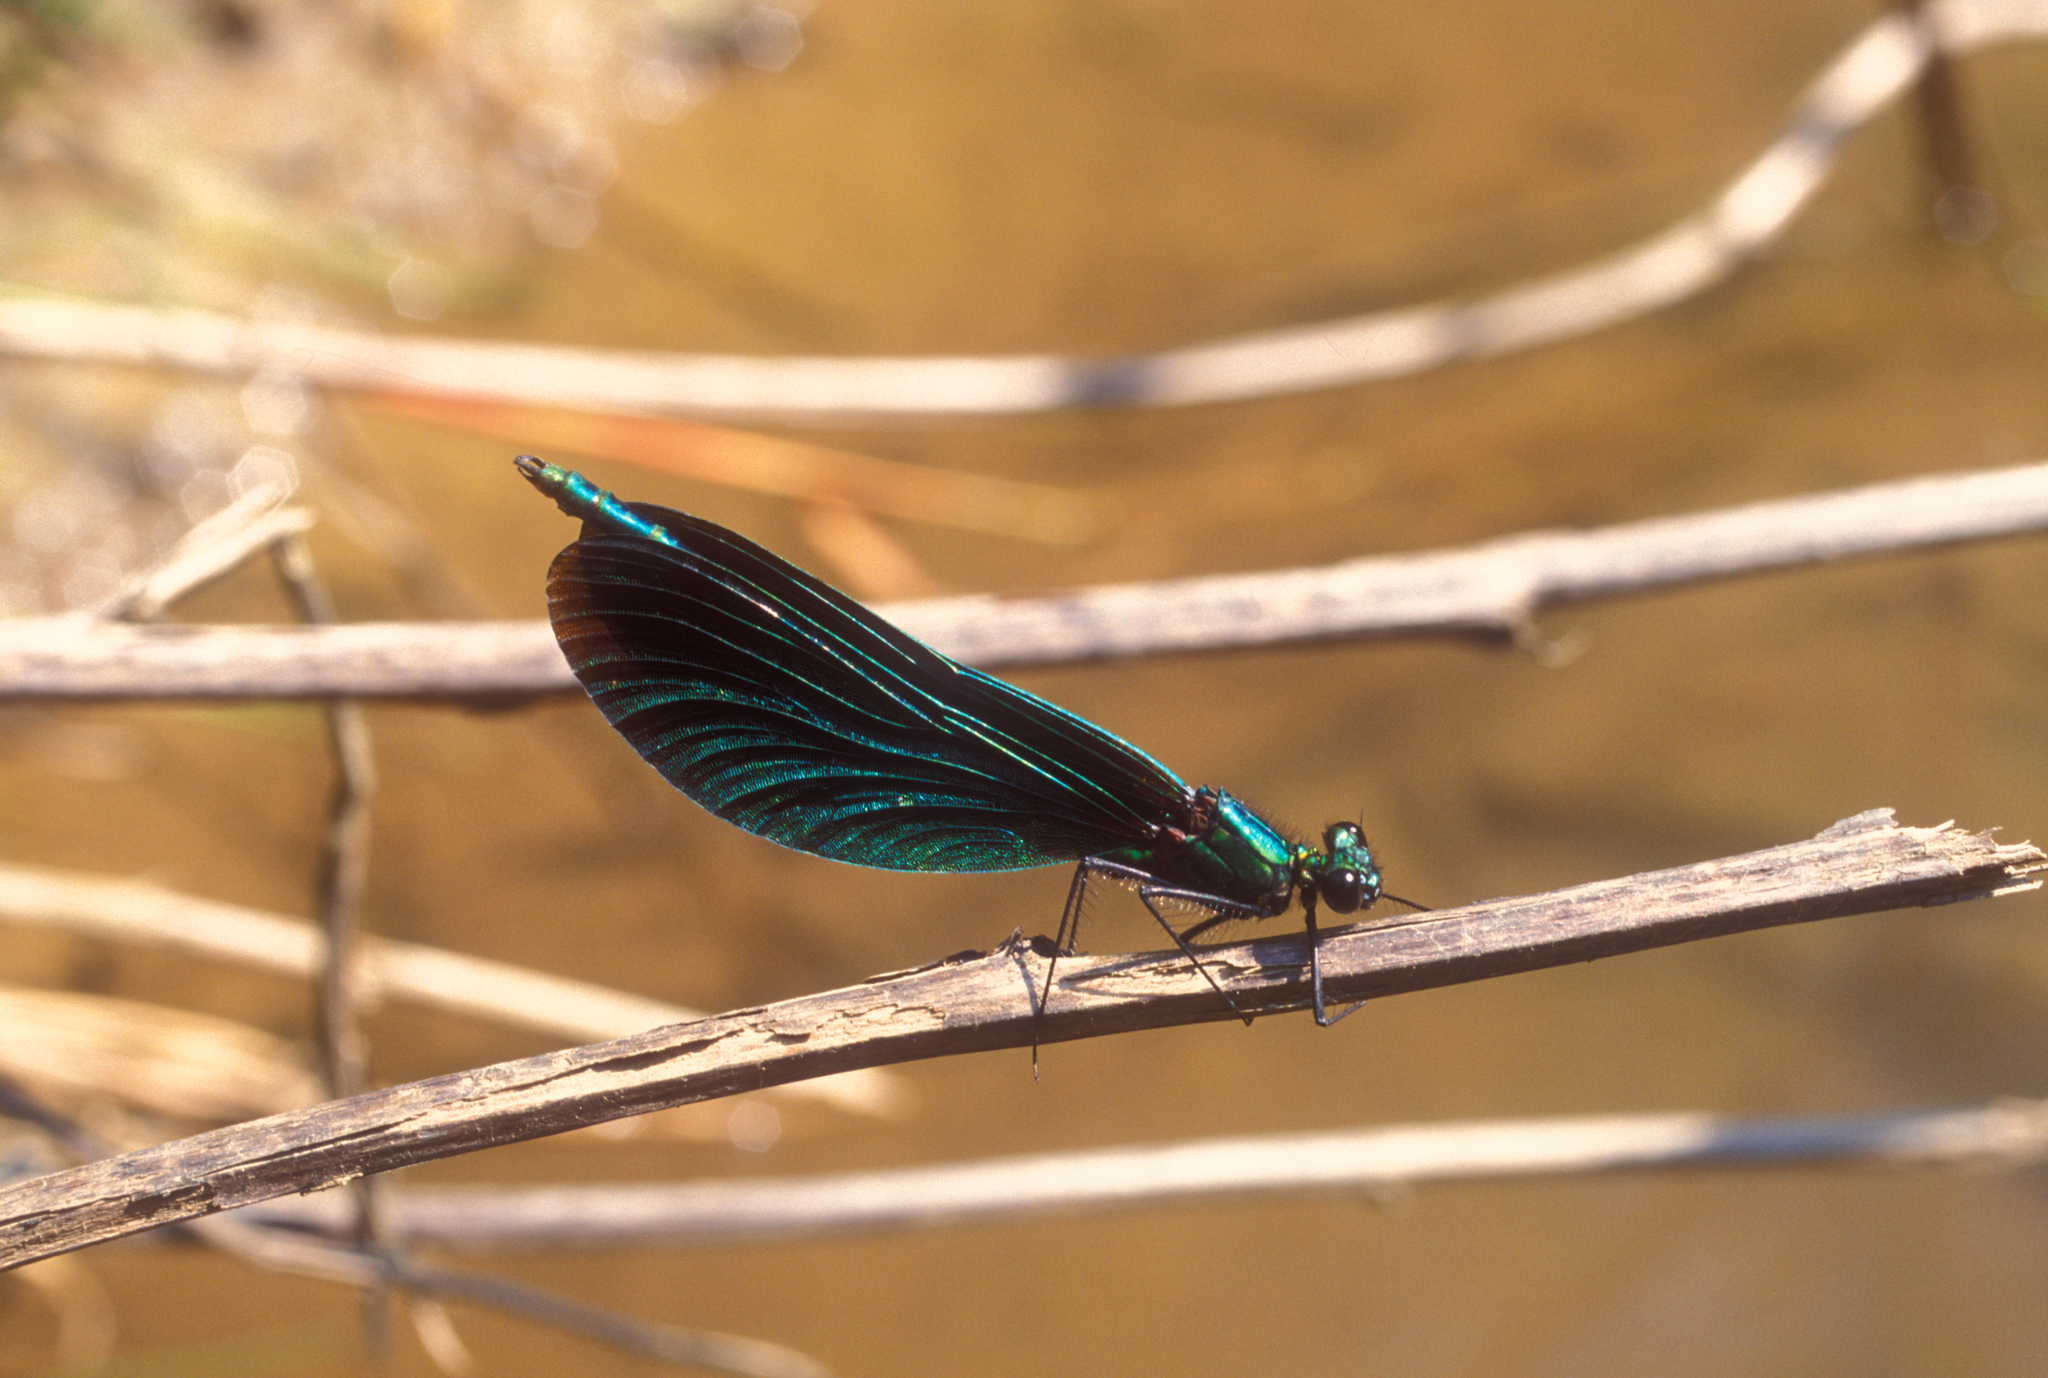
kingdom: Animalia
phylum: Arthropoda
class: Insecta
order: Odonata
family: Calopterygidae
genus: Calopteryx
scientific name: Calopteryx virgo
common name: Beautiful demoiselle
